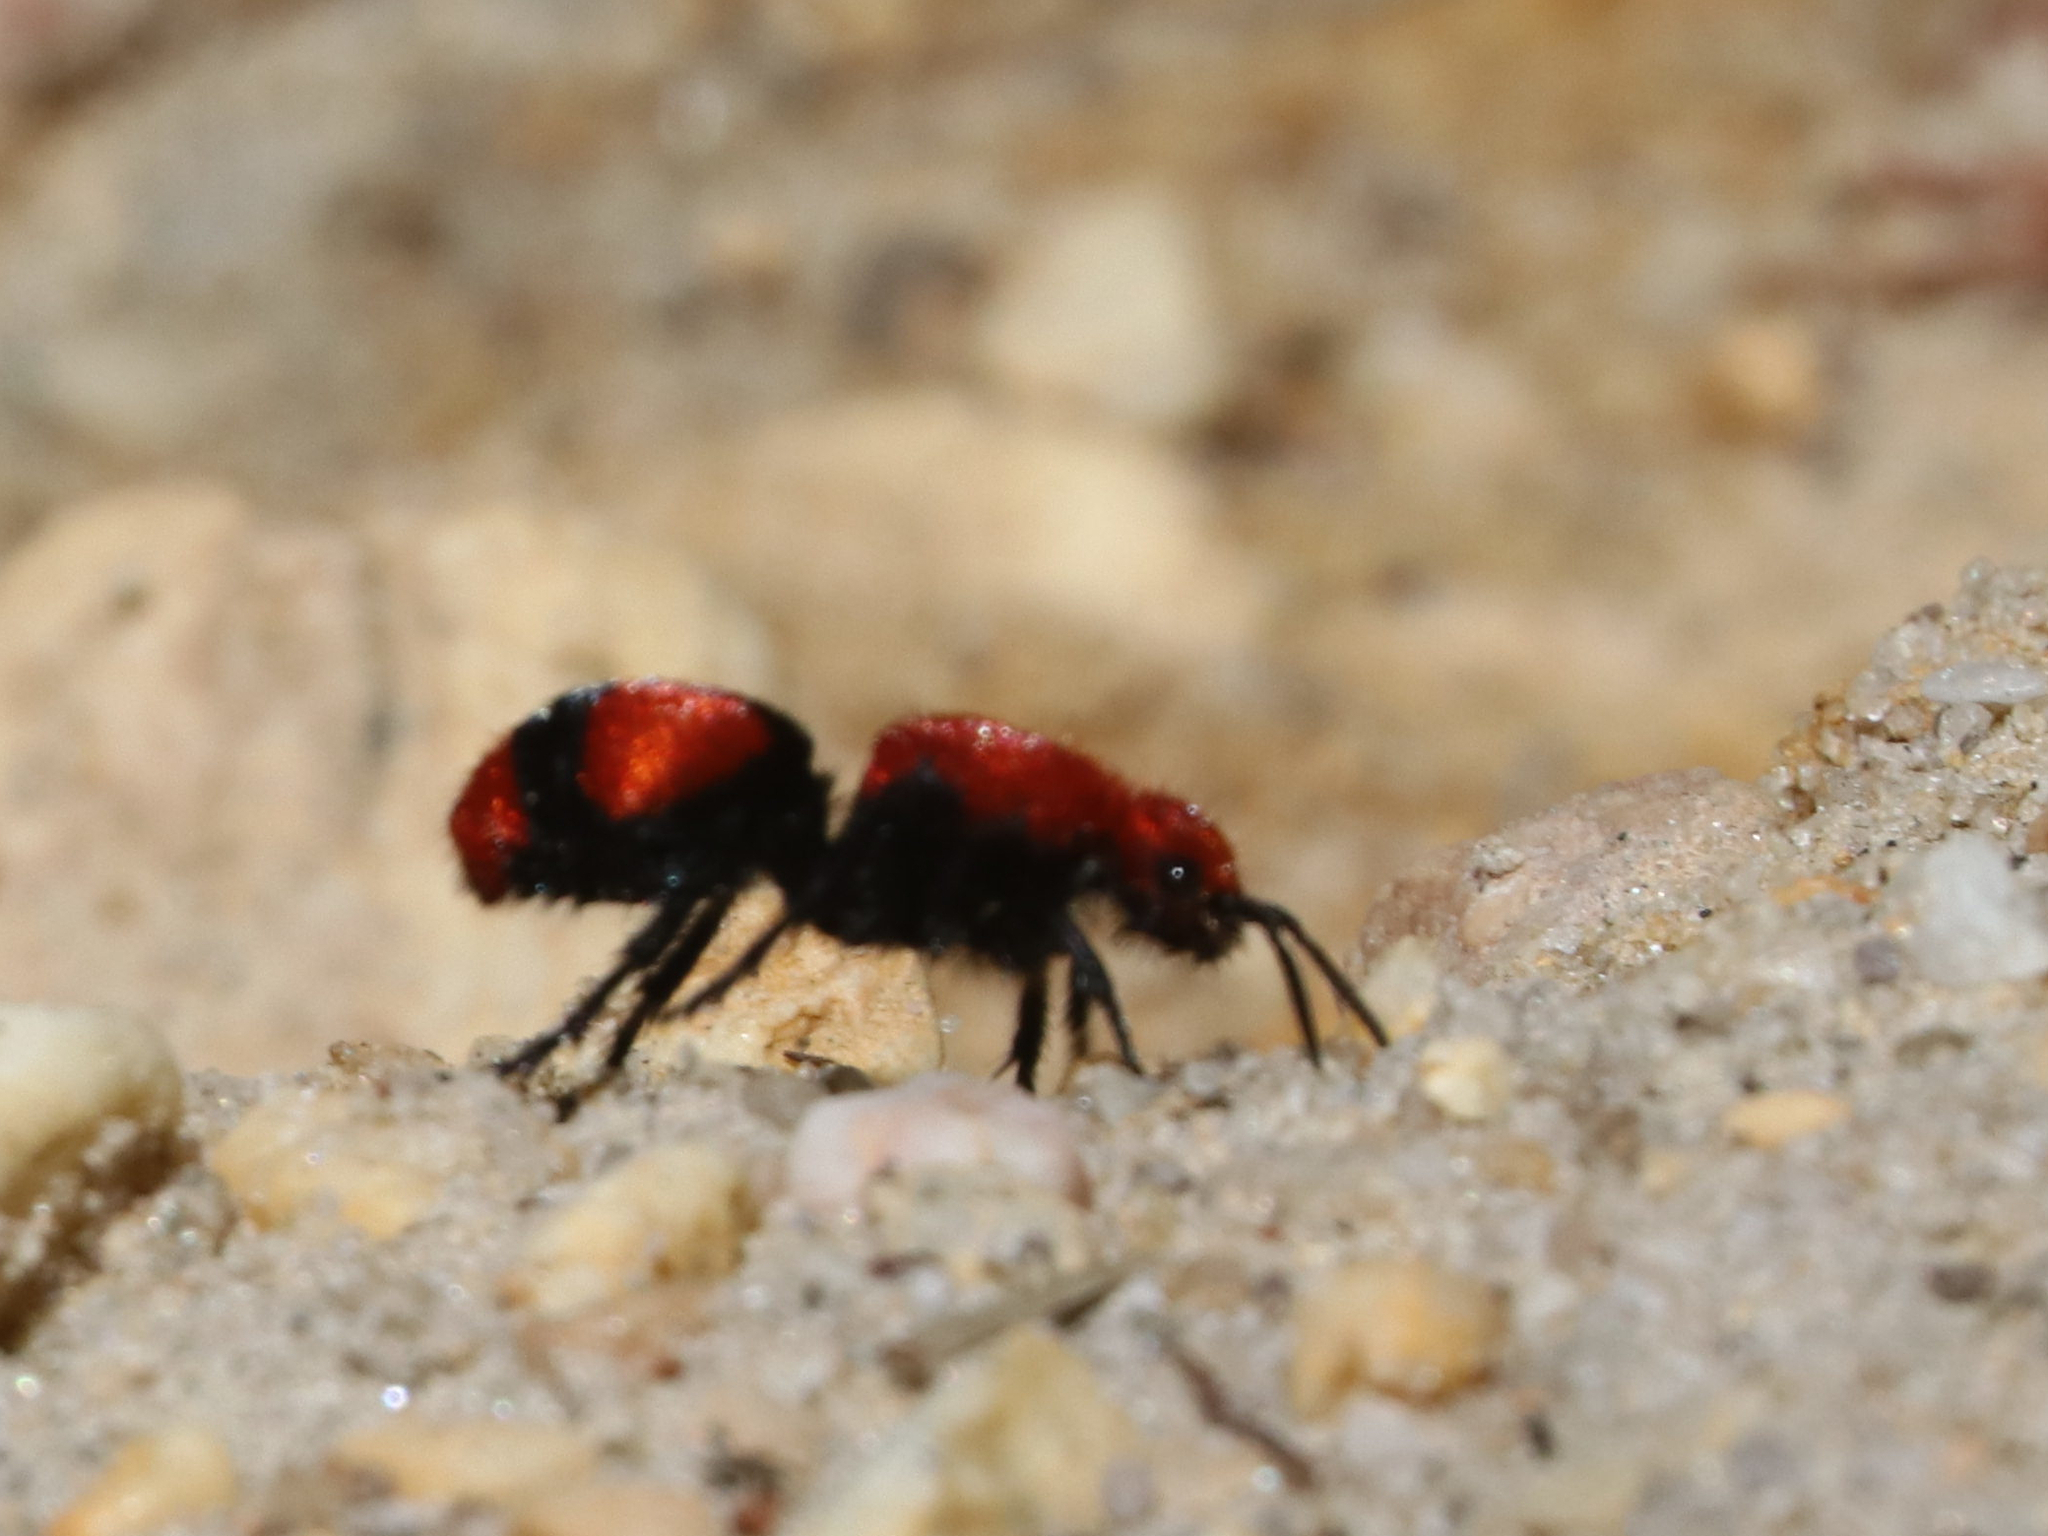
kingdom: Animalia
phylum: Arthropoda
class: Insecta
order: Hymenoptera
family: Mutillidae
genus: Dasymutilla
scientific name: Dasymutilla occidentalis
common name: Common eastern velvet ant
